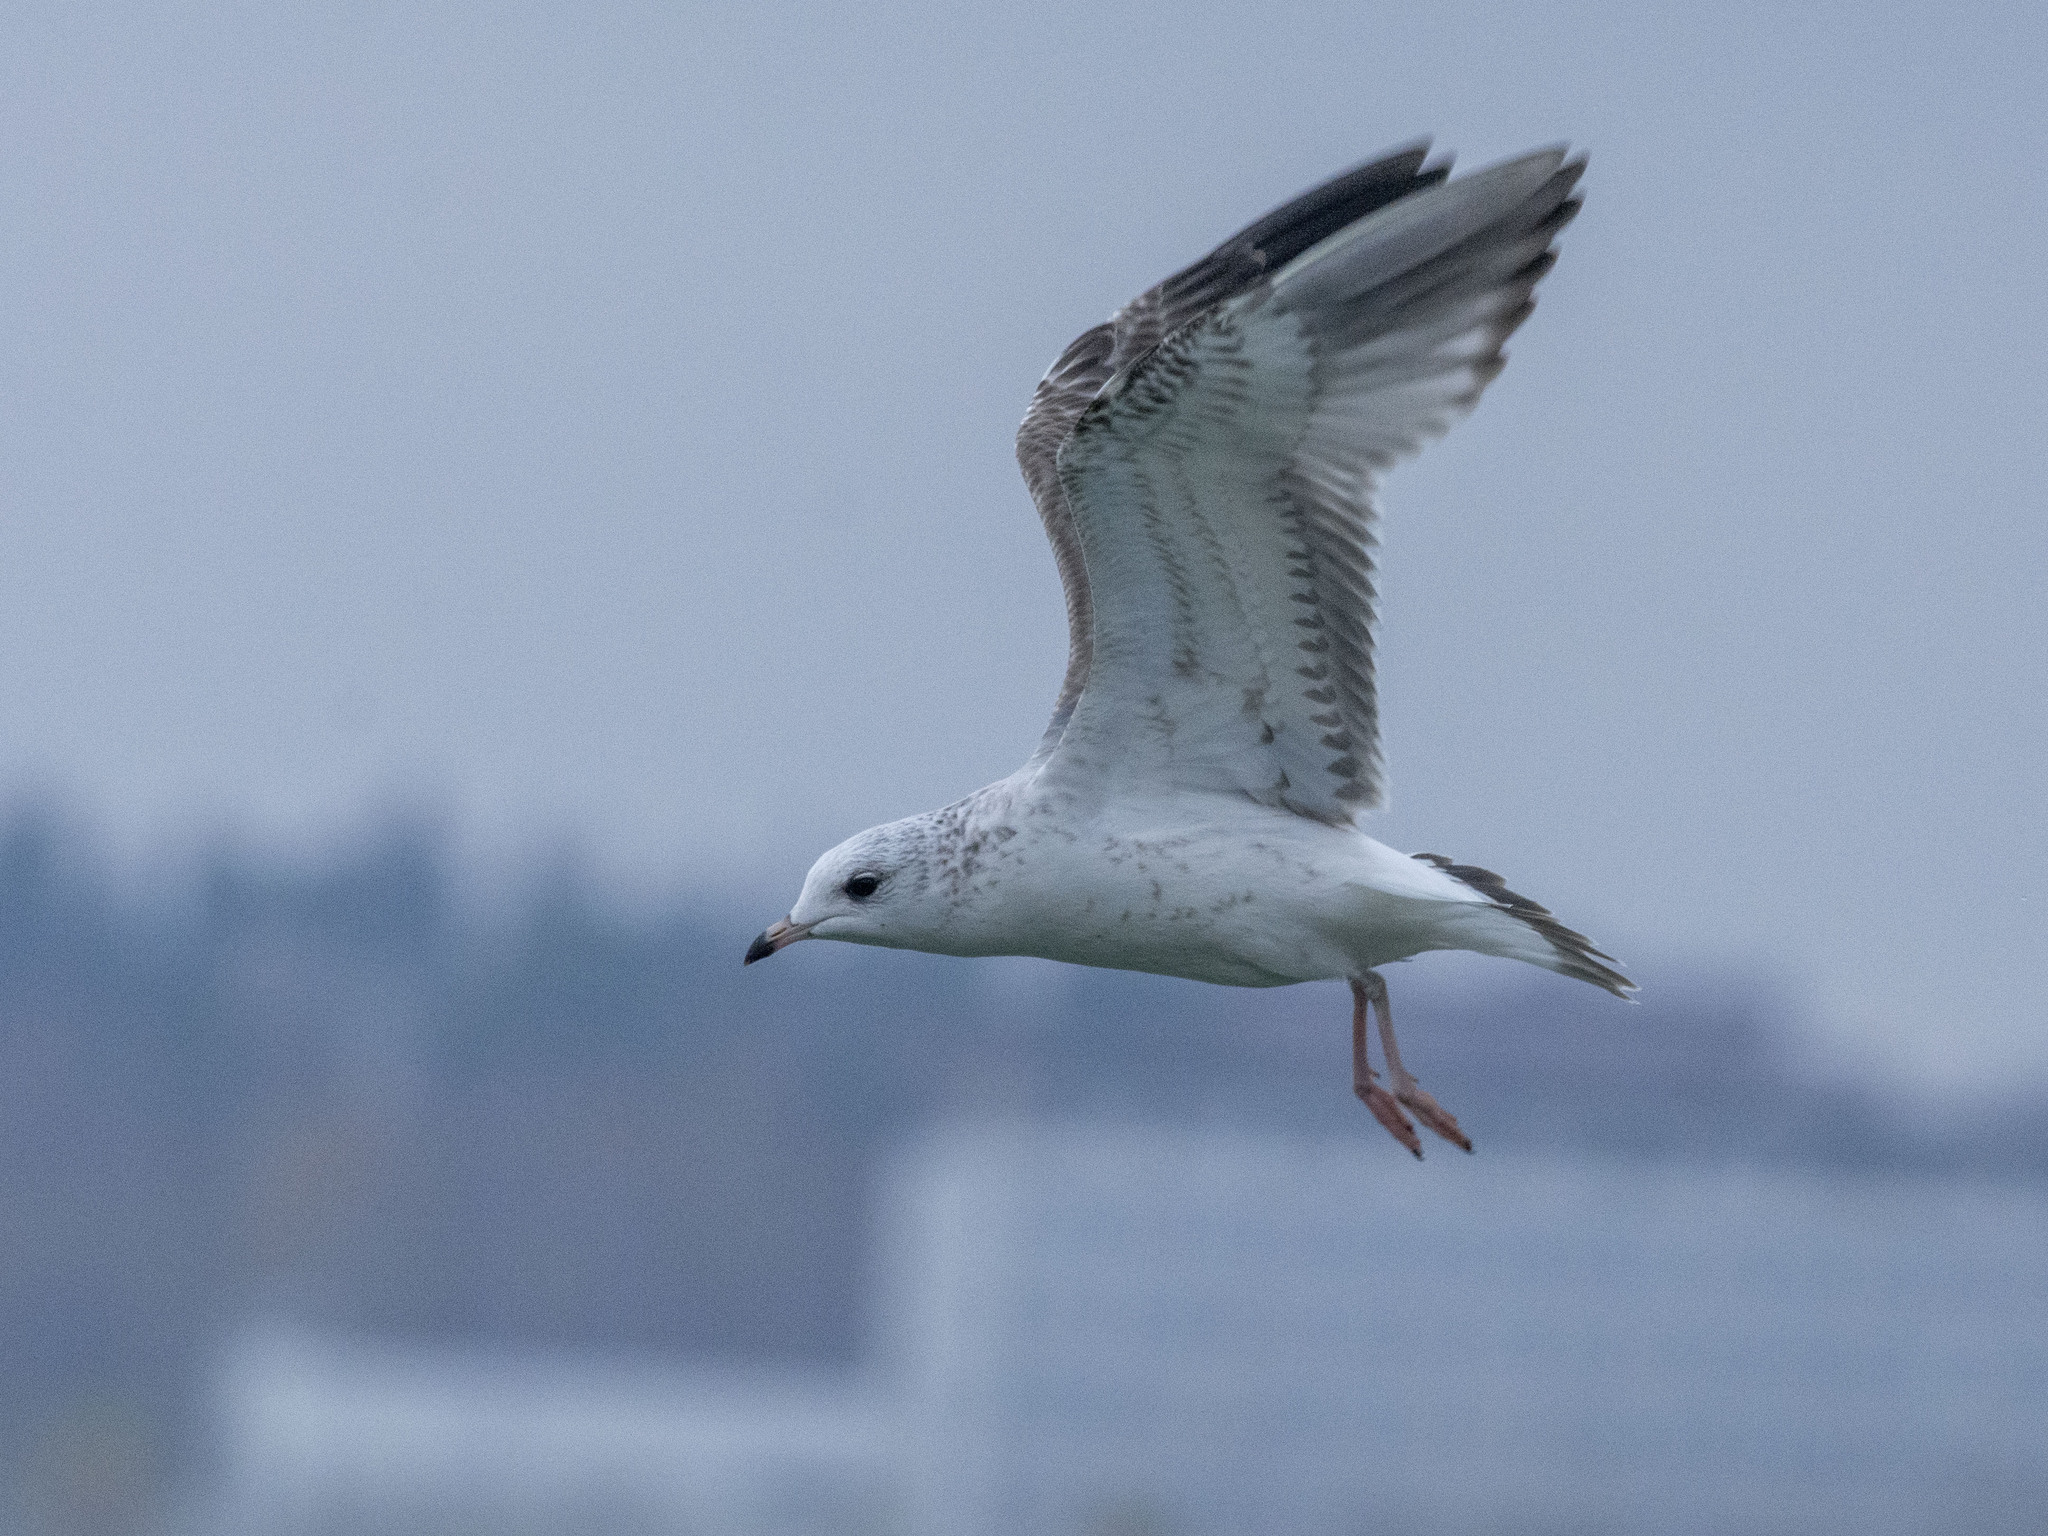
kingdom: Animalia
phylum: Chordata
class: Aves
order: Charadriiformes
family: Laridae
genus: Larus
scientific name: Larus canus
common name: Mew gull
